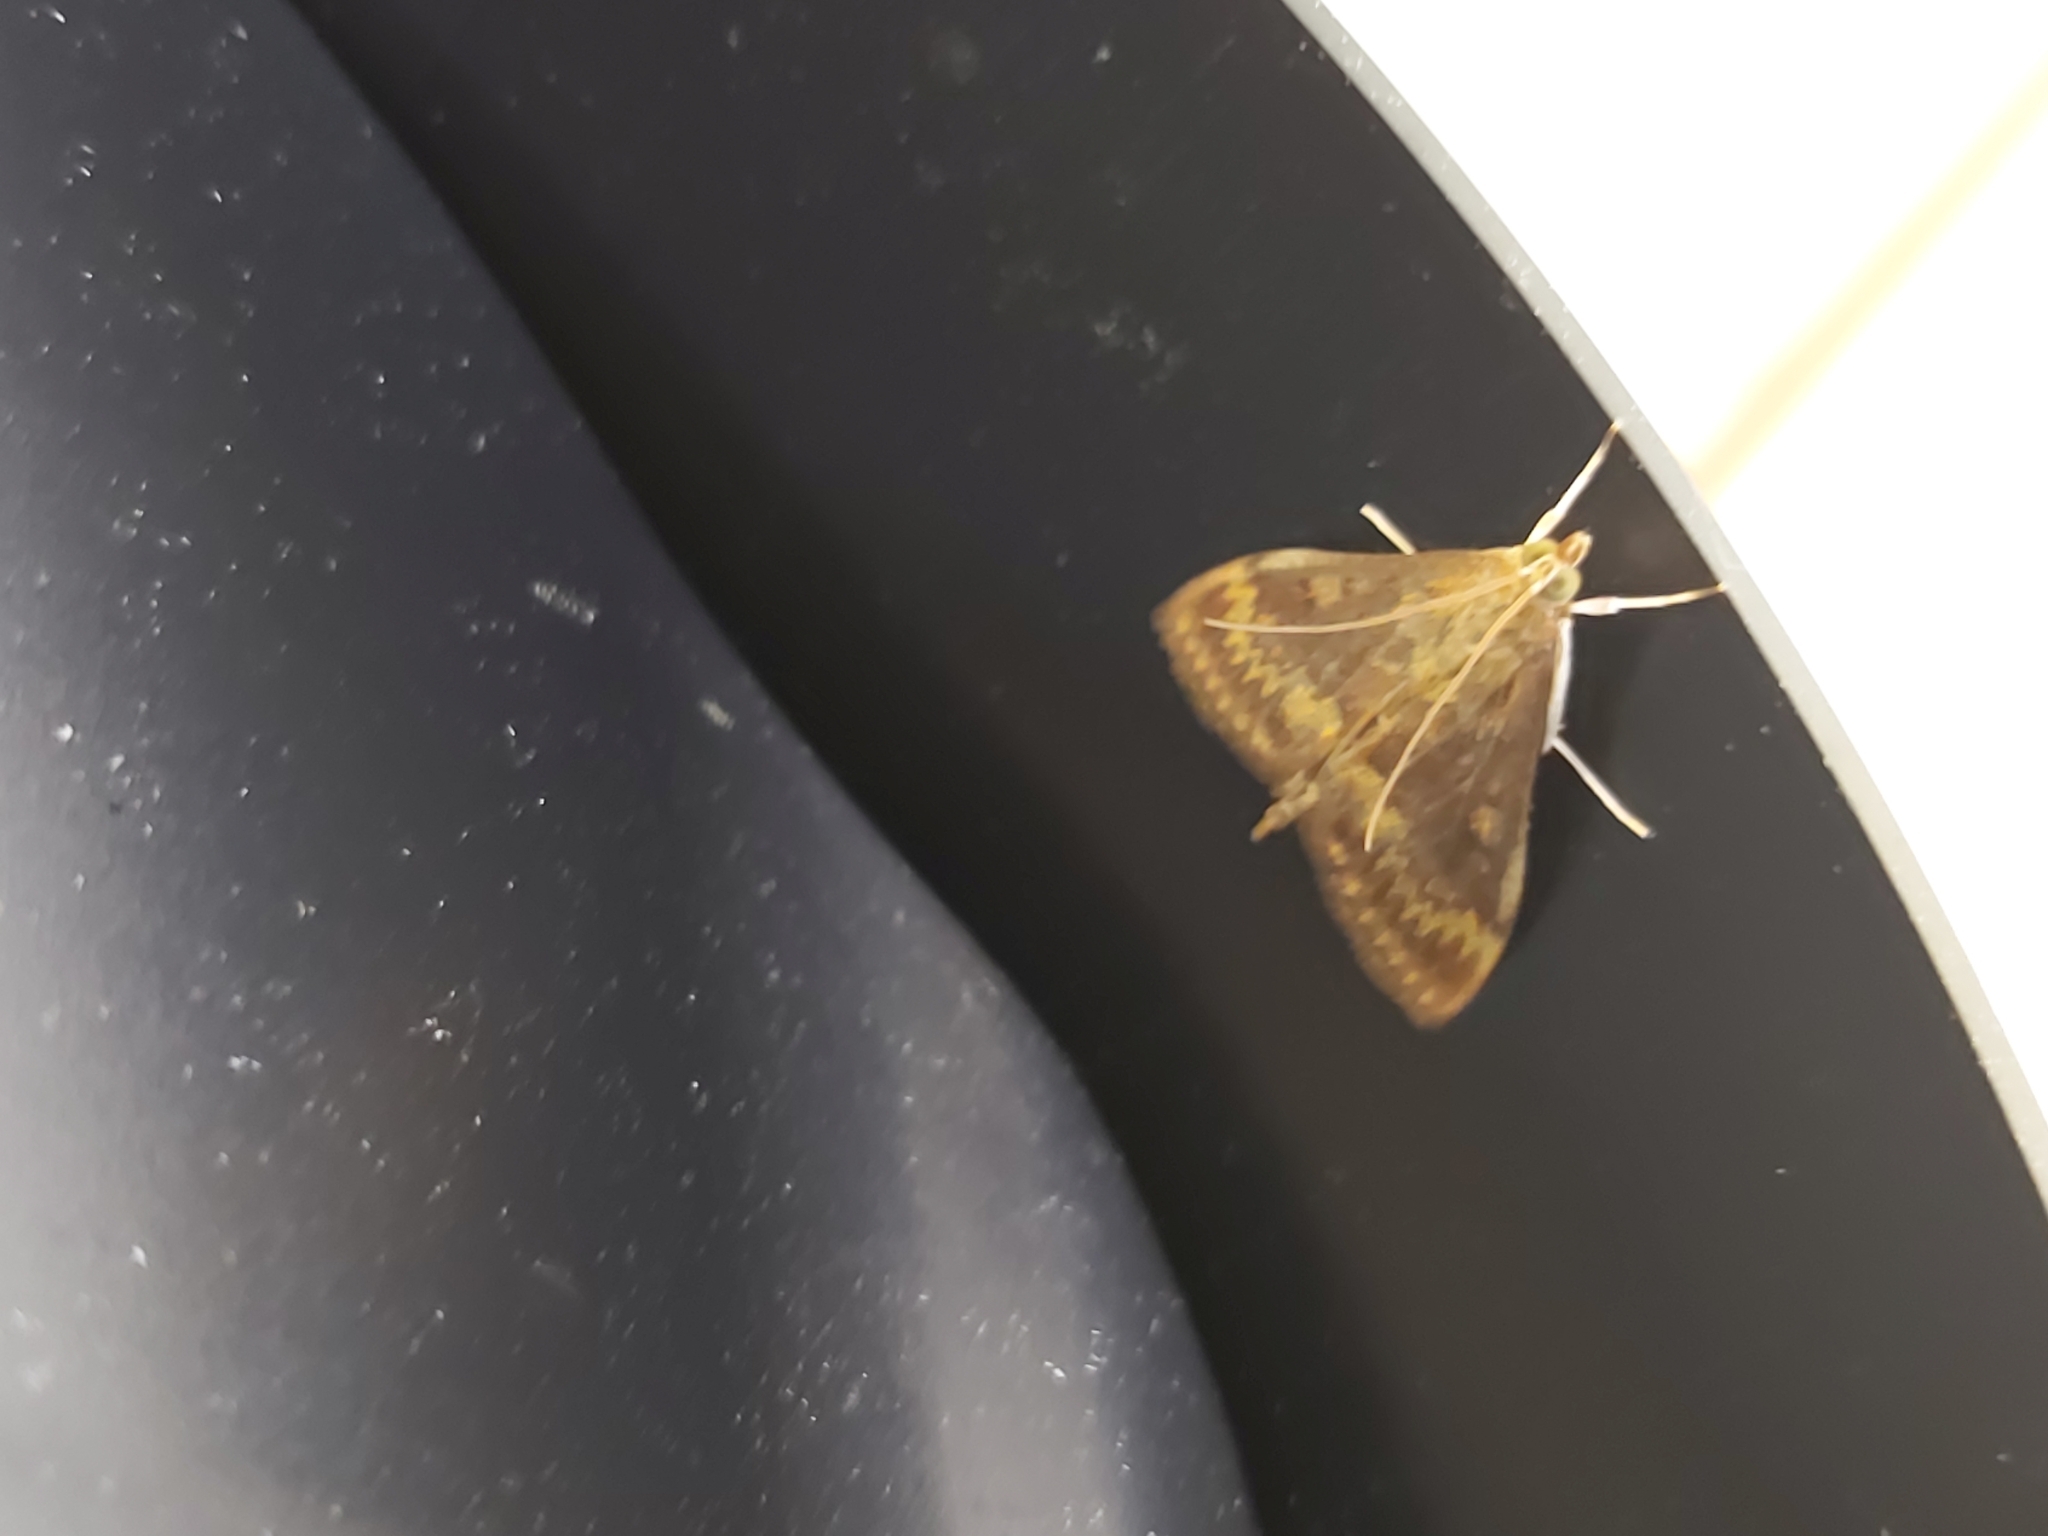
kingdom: Animalia
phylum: Arthropoda
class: Insecta
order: Lepidoptera
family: Crambidae
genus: Ostrinia
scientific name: Ostrinia nubilalis
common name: European corn borer
